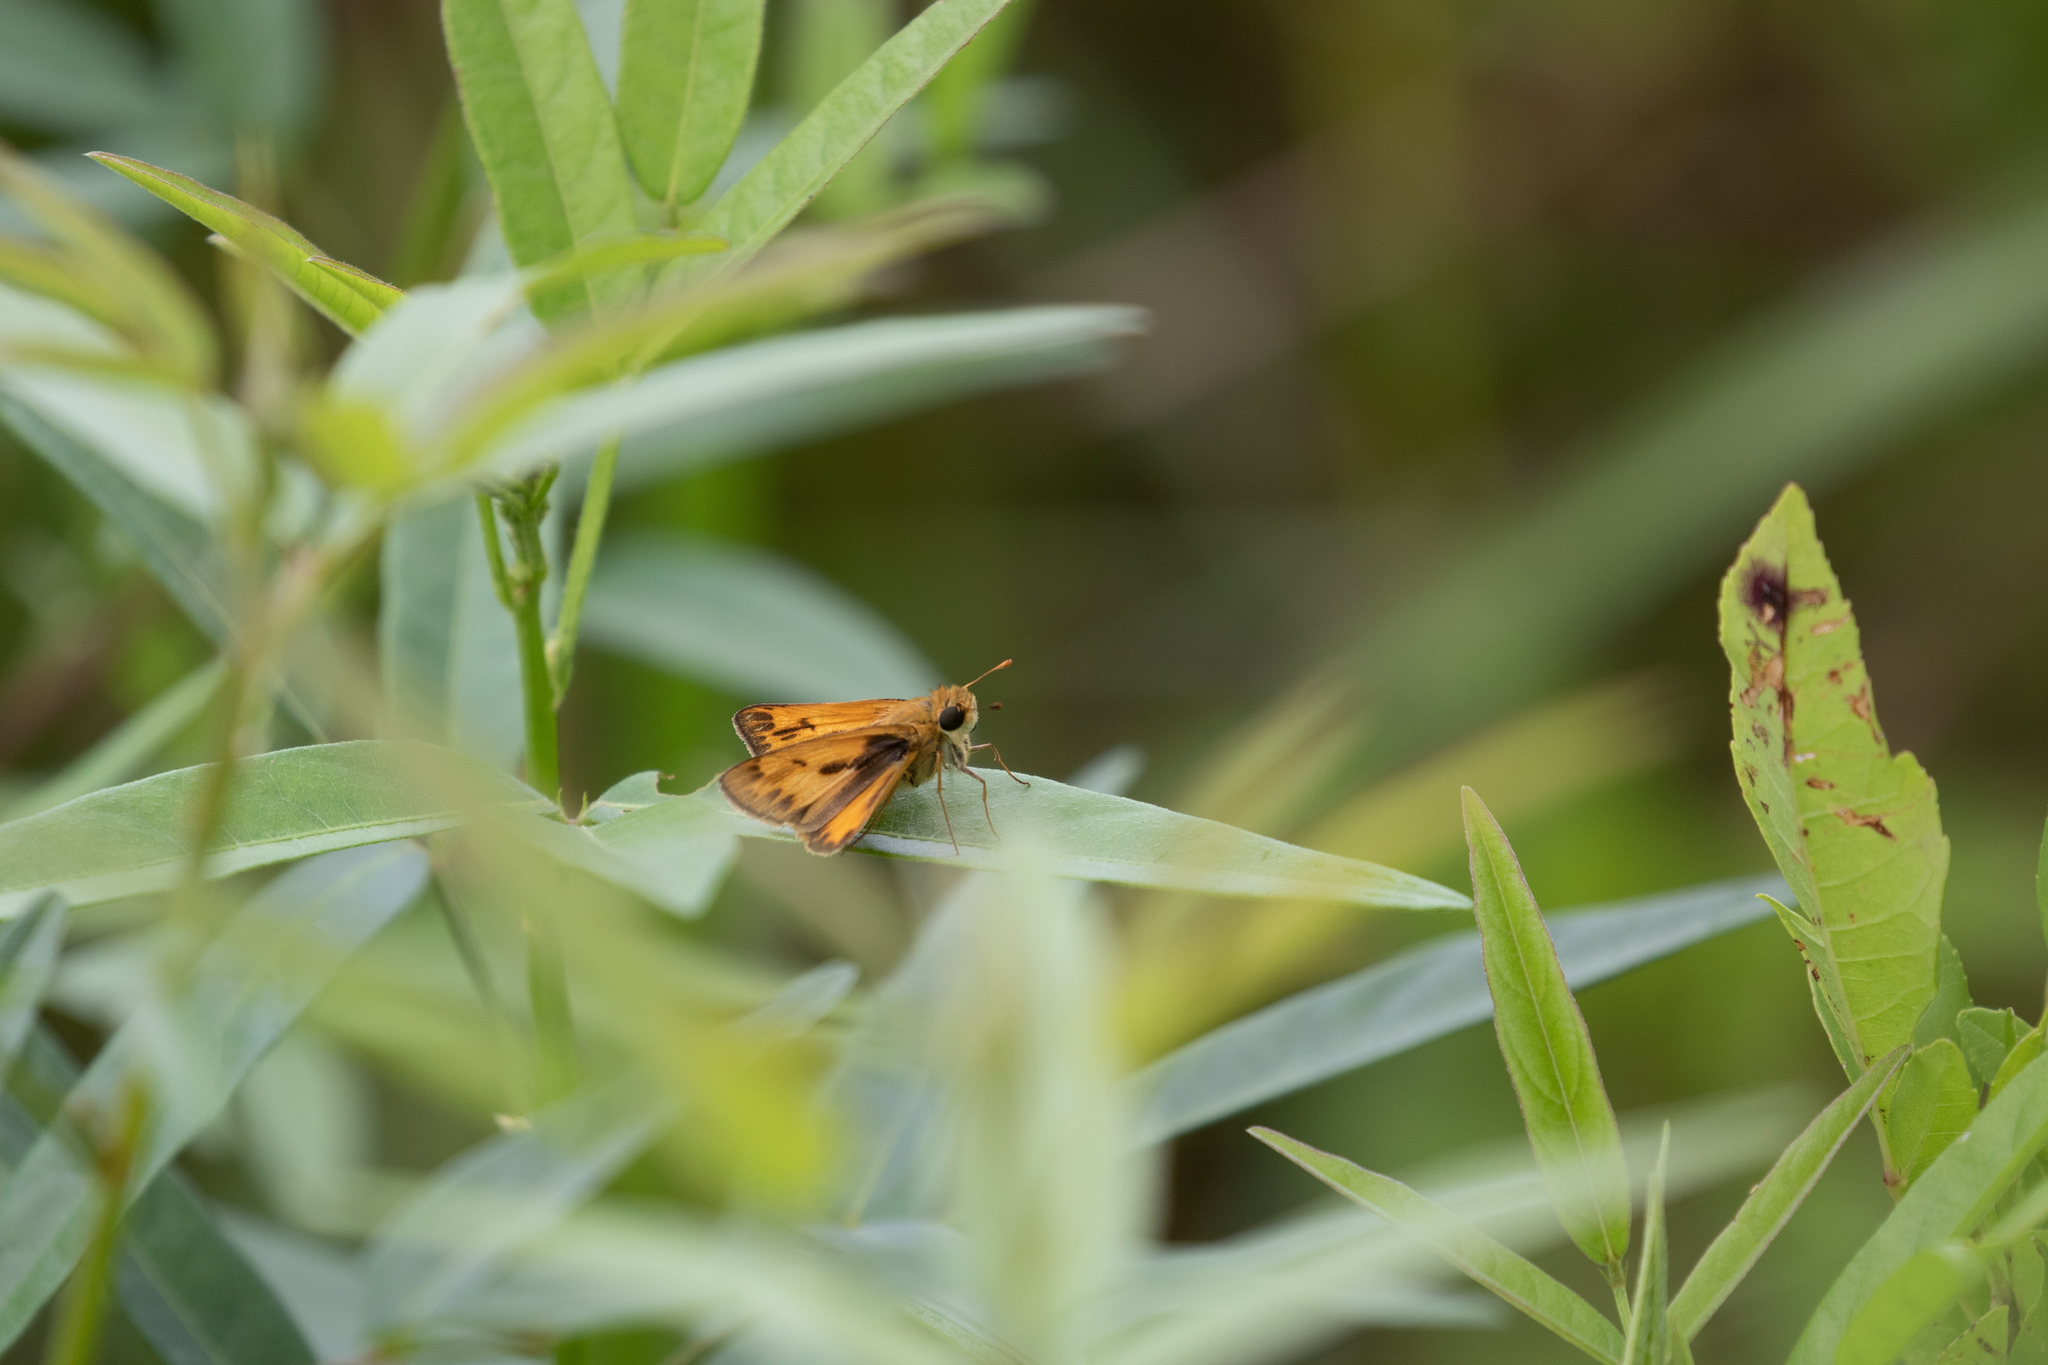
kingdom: Animalia
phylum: Arthropoda
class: Insecta
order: Lepidoptera
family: Hesperiidae
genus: Hylephila
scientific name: Hylephila phyleus
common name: Fiery skipper
